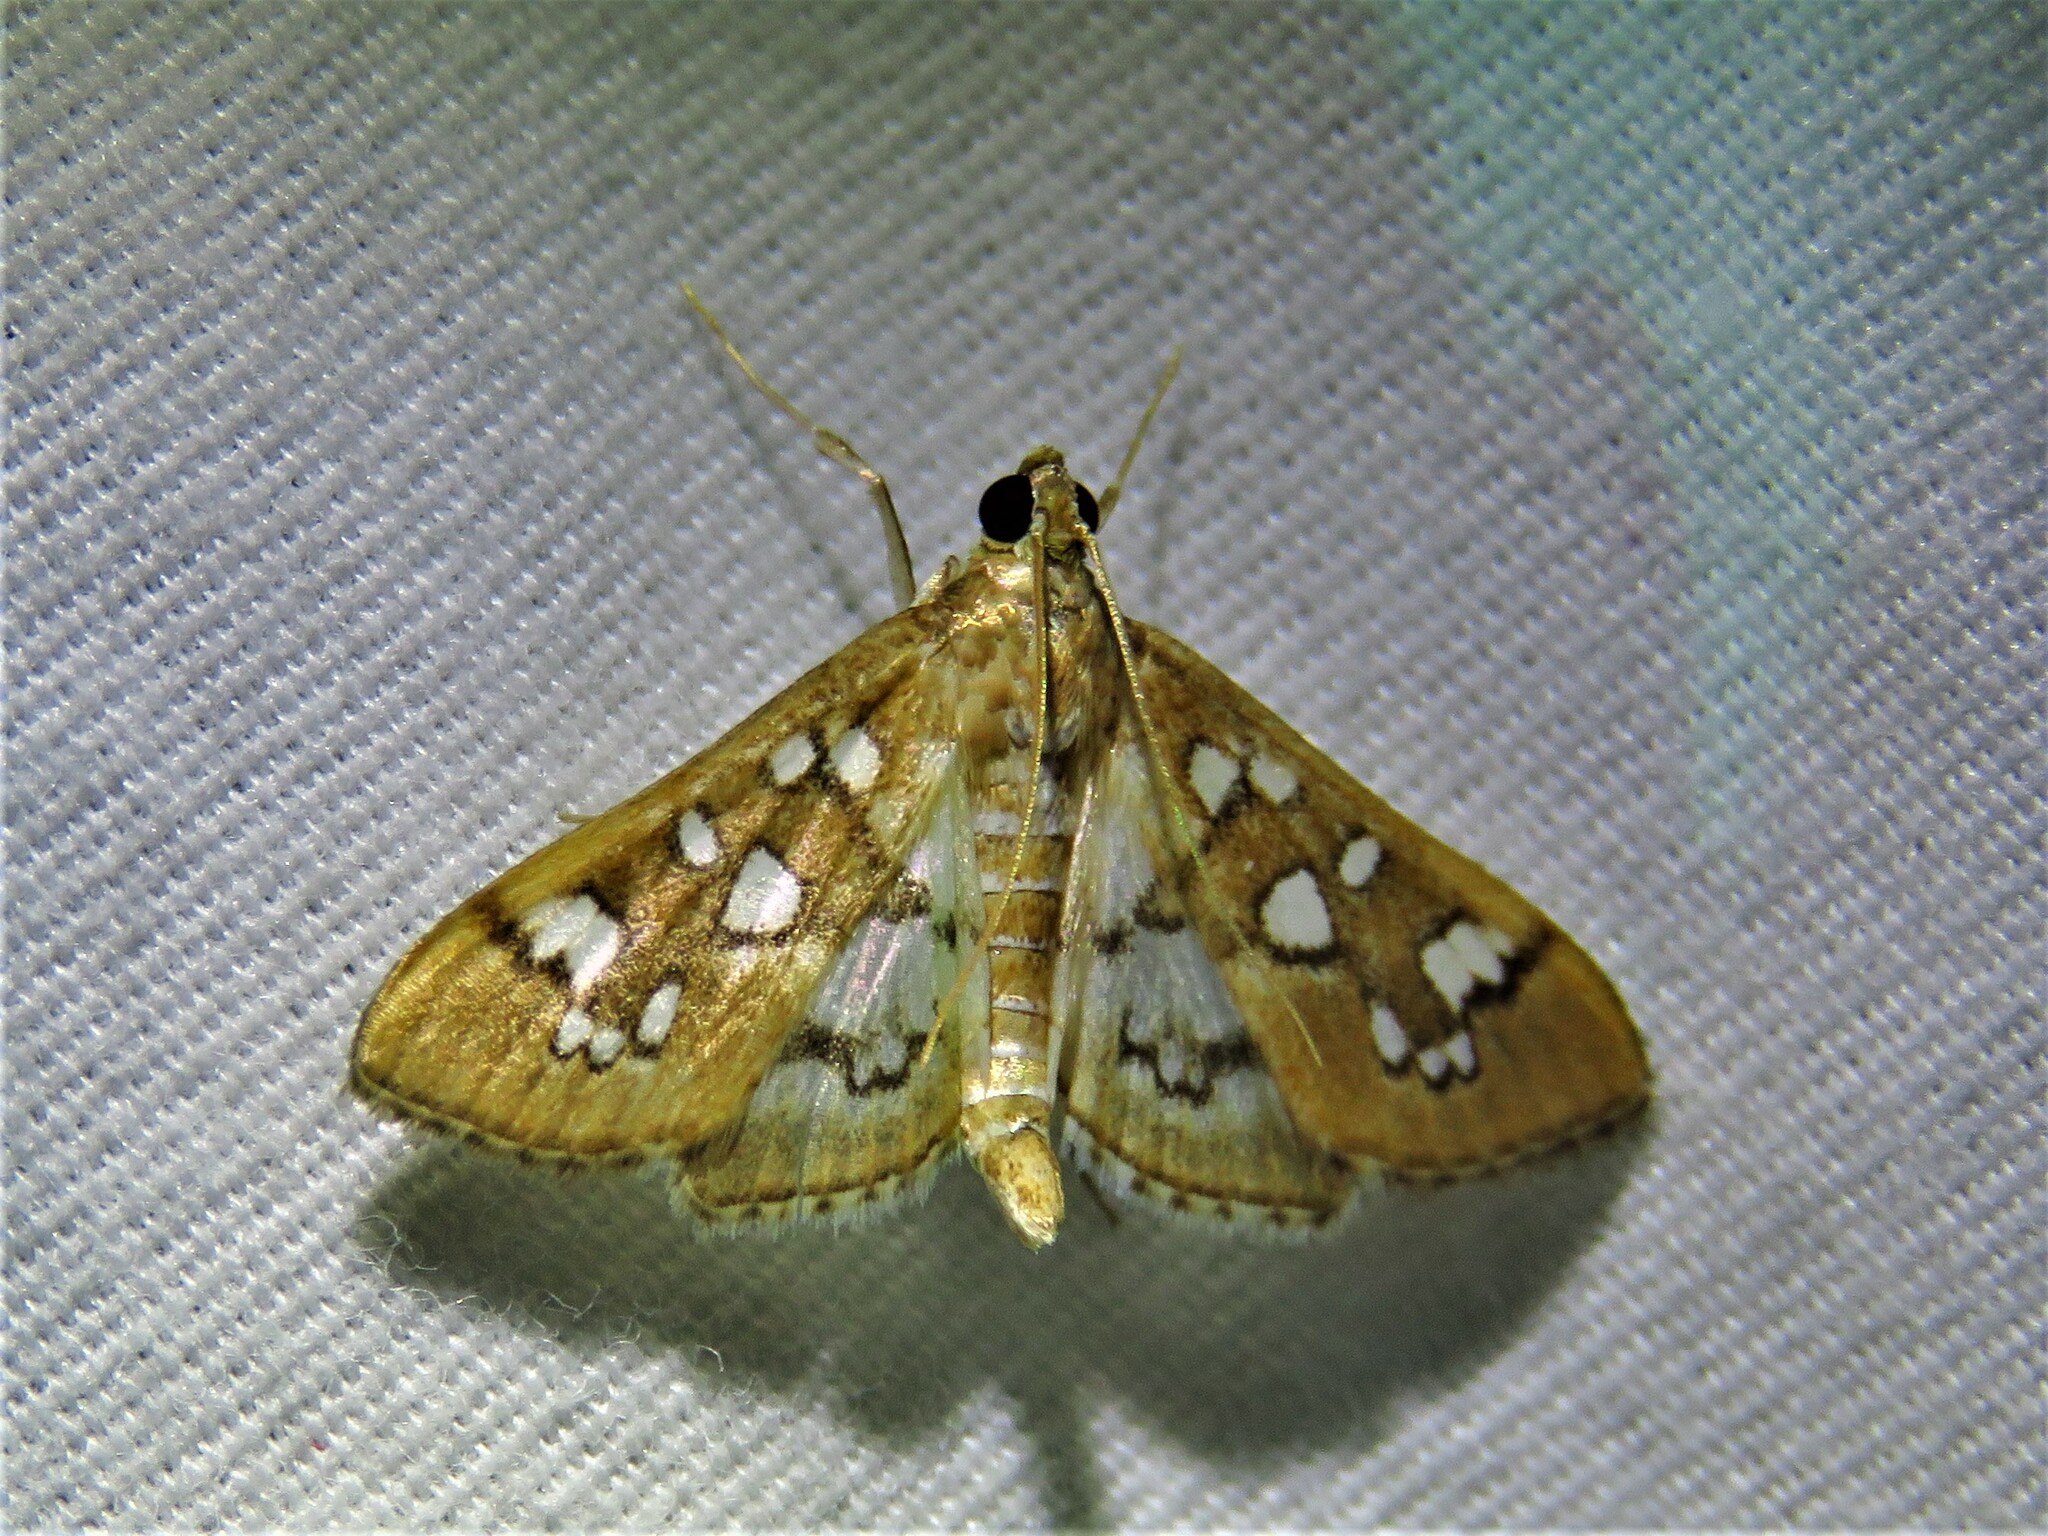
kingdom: Animalia
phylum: Arthropoda
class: Insecta
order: Lepidoptera
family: Crambidae
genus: Samea
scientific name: Samea baccatalis
